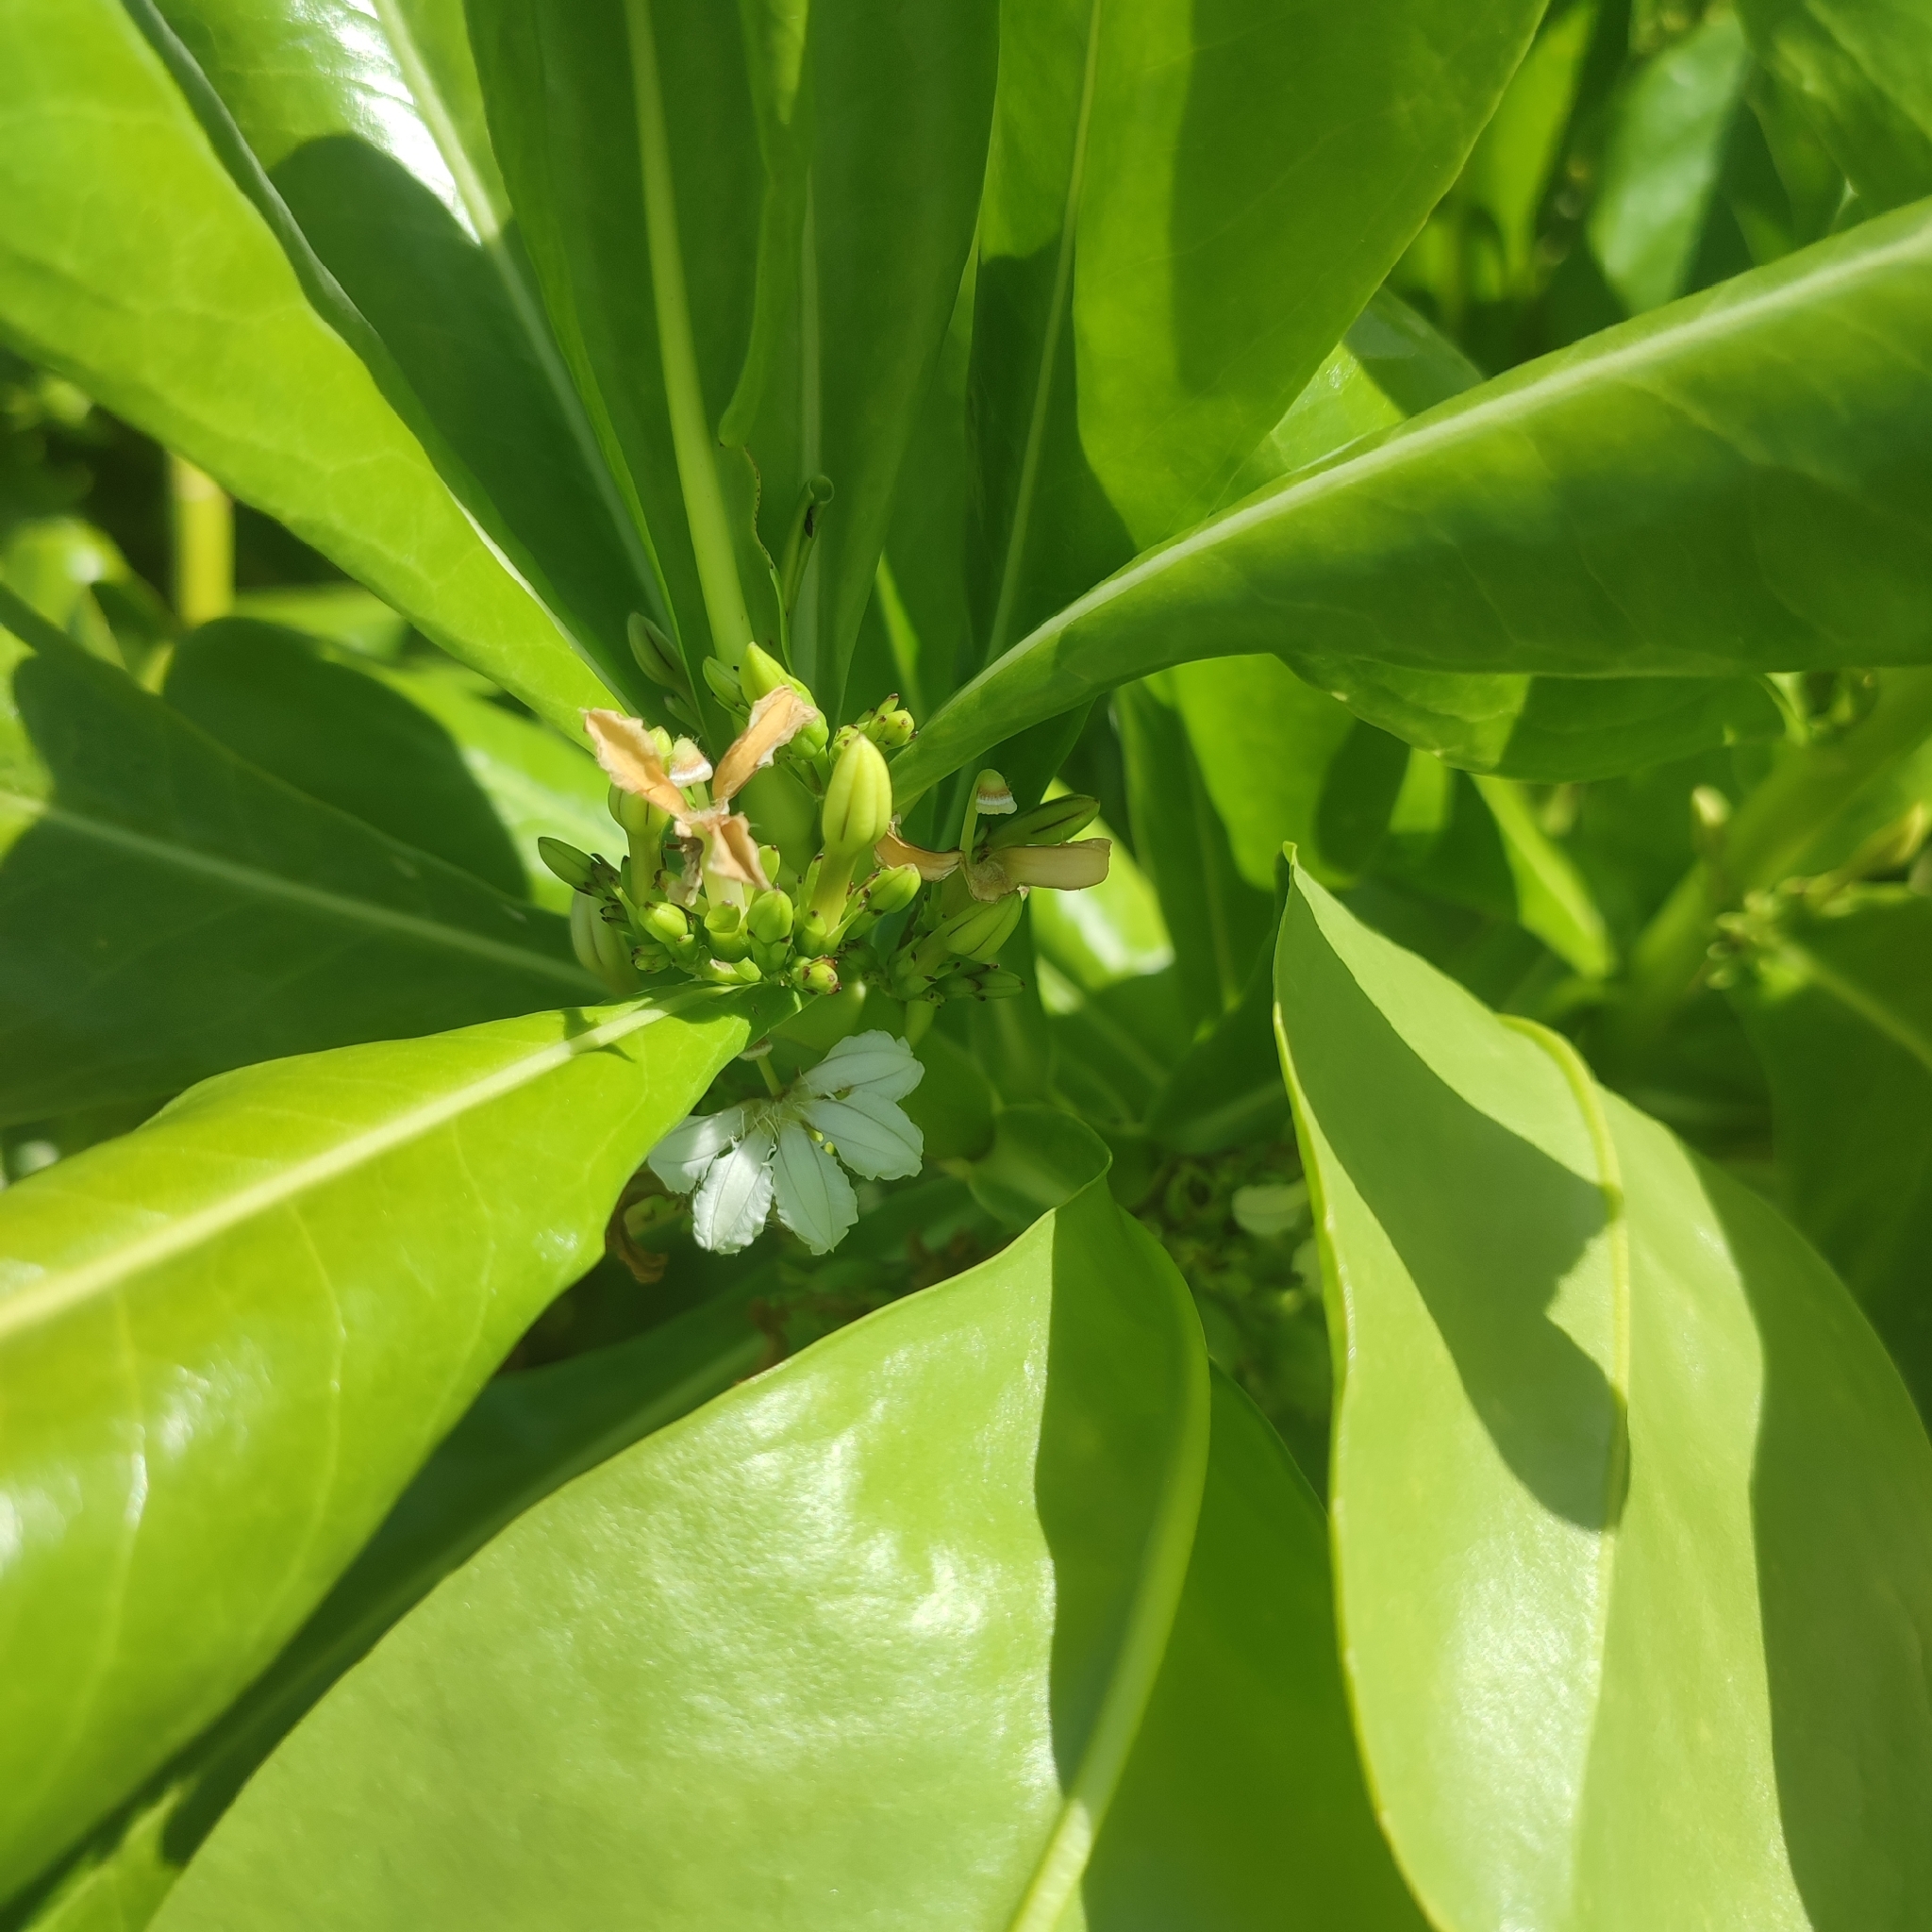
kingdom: Plantae
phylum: Tracheophyta
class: Magnoliopsida
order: Asterales
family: Goodeniaceae
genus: Scaevola
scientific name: Scaevola taccada
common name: Sea lettucetree
